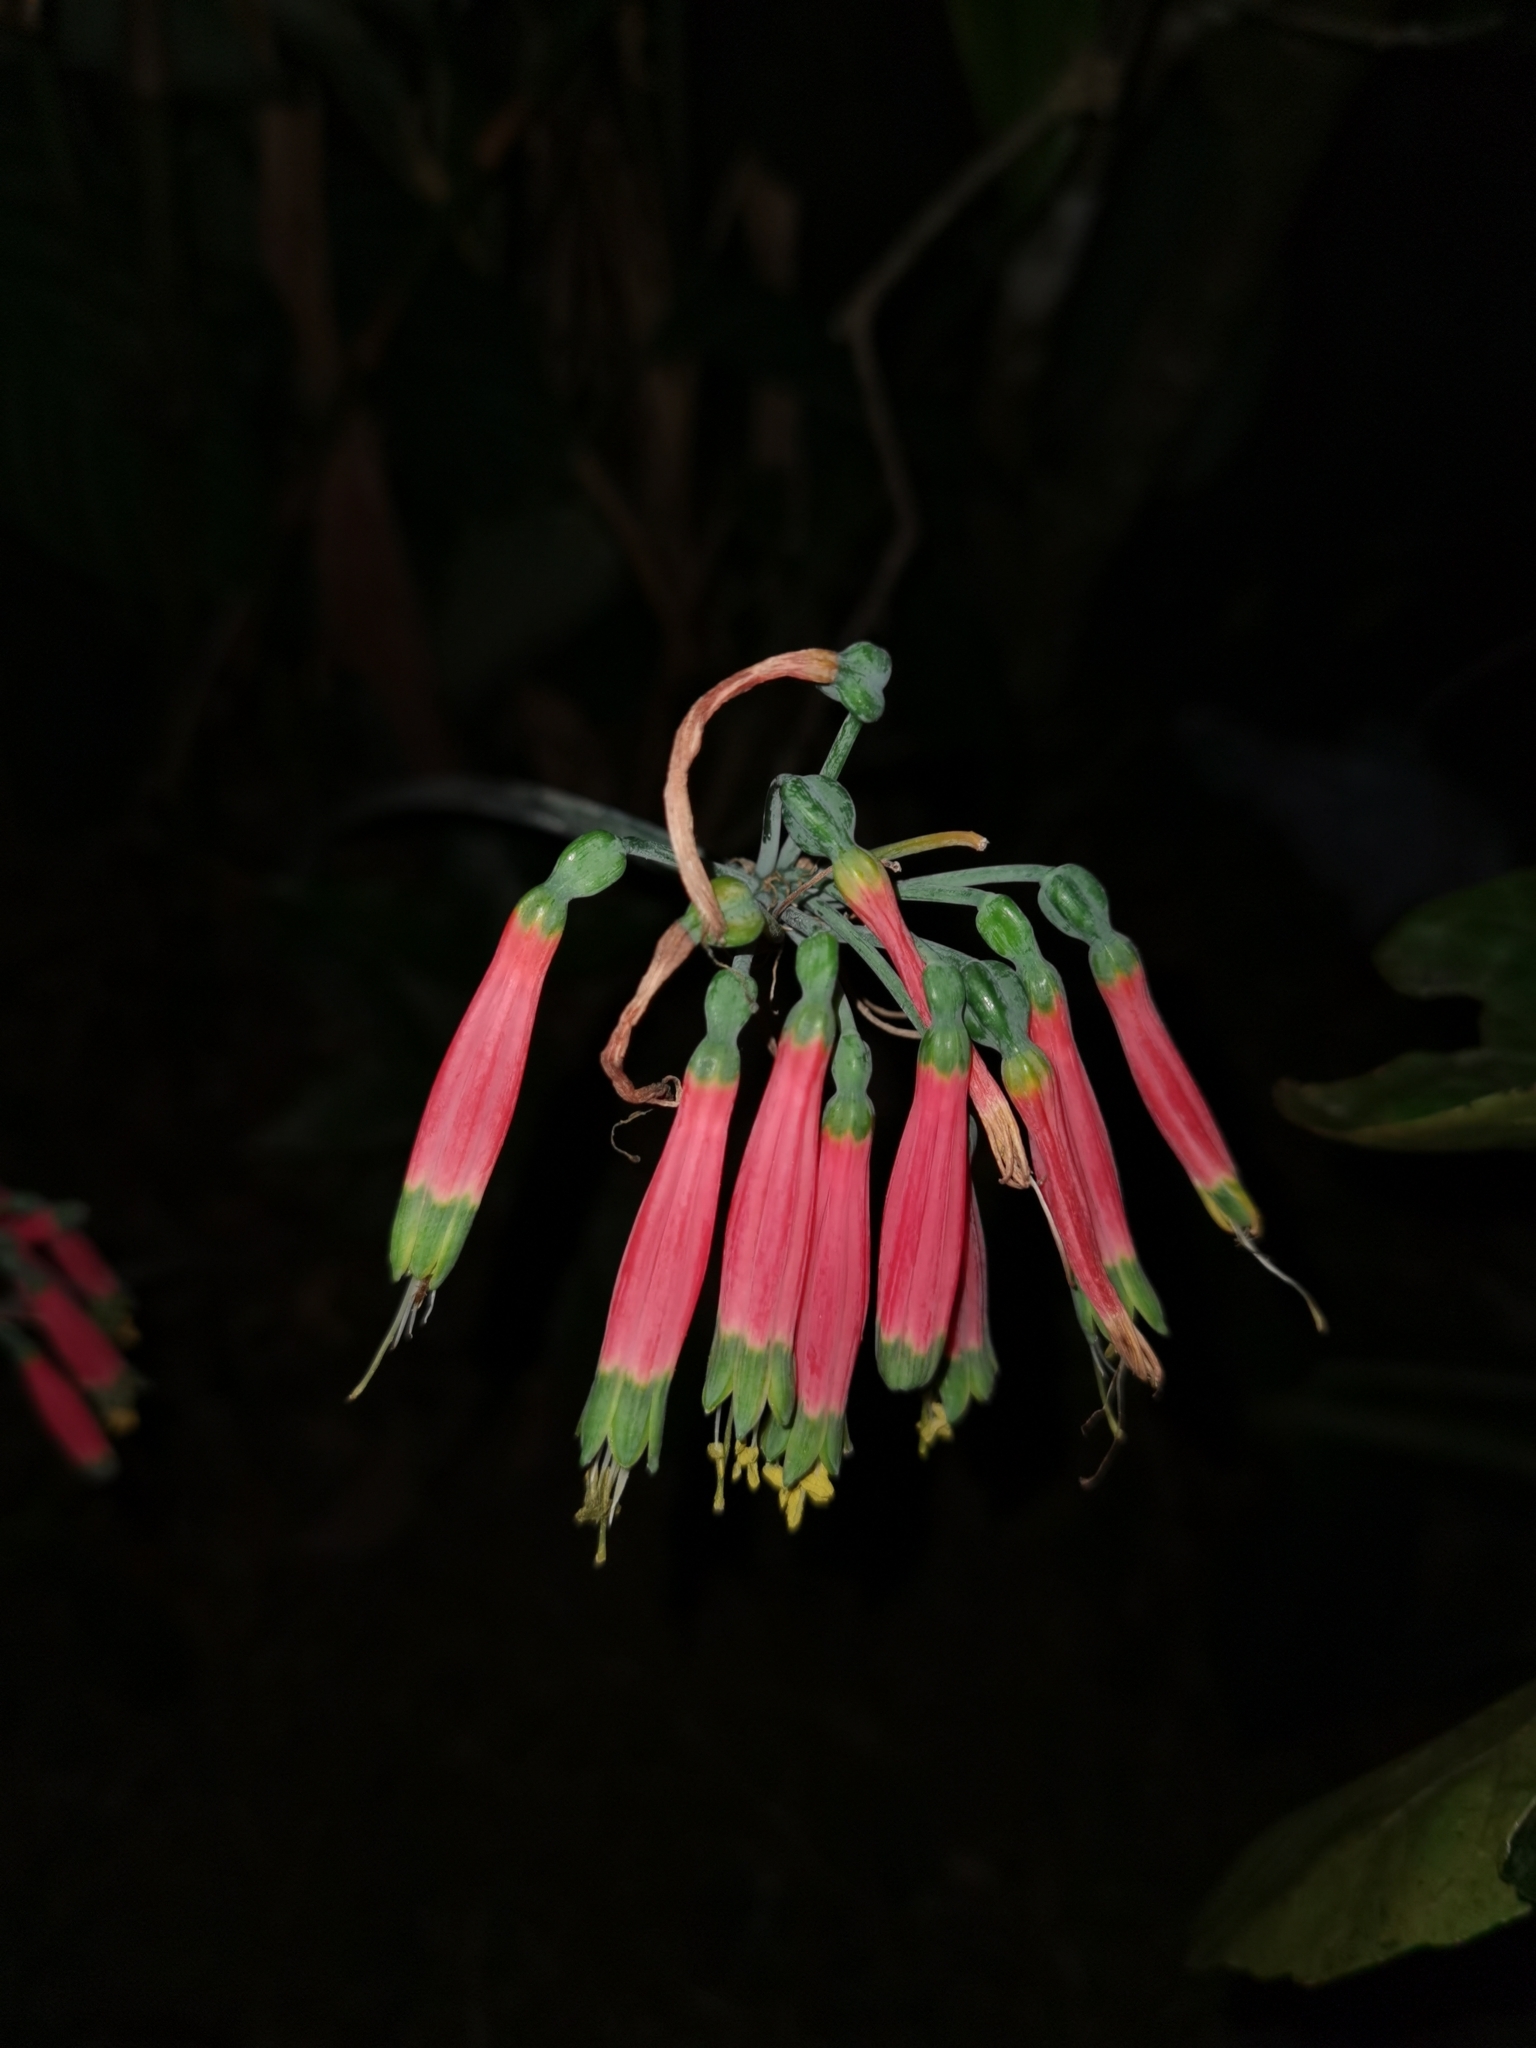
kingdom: Plantae
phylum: Tracheophyta
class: Liliopsida
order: Asparagales
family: Amaryllidaceae
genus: Phaedranassa
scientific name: Phaedranassa carmiolii
